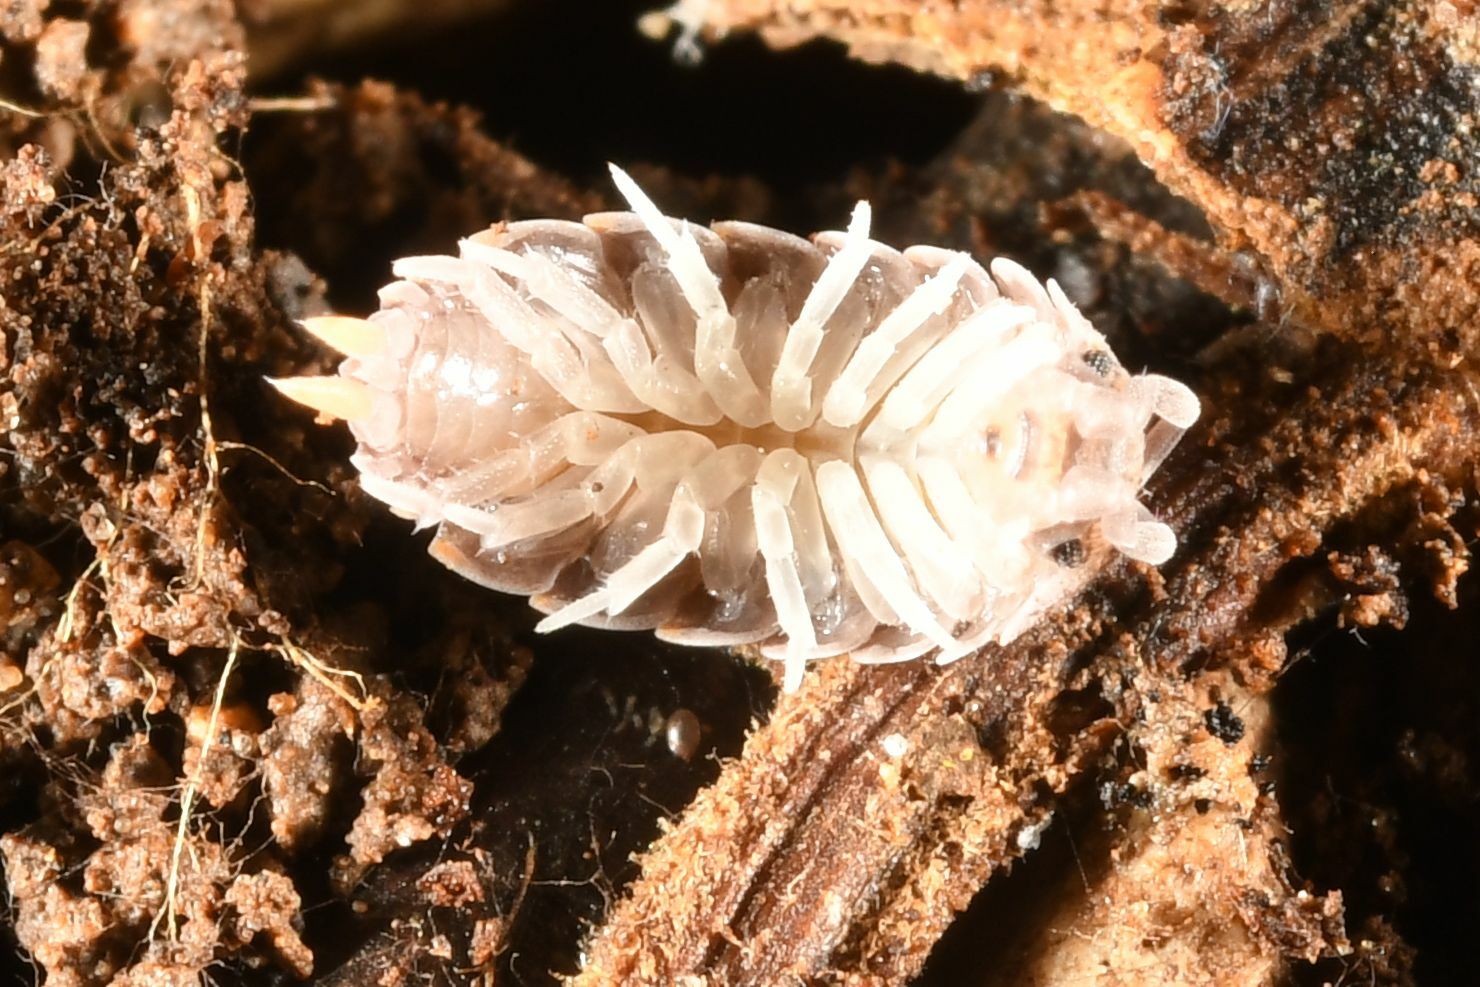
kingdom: Animalia
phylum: Arthropoda
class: Malacostraca
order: Isopoda
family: Porcellionidae
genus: Porcellionides
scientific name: Porcellionides pruinosus
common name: Plum woodlouse
